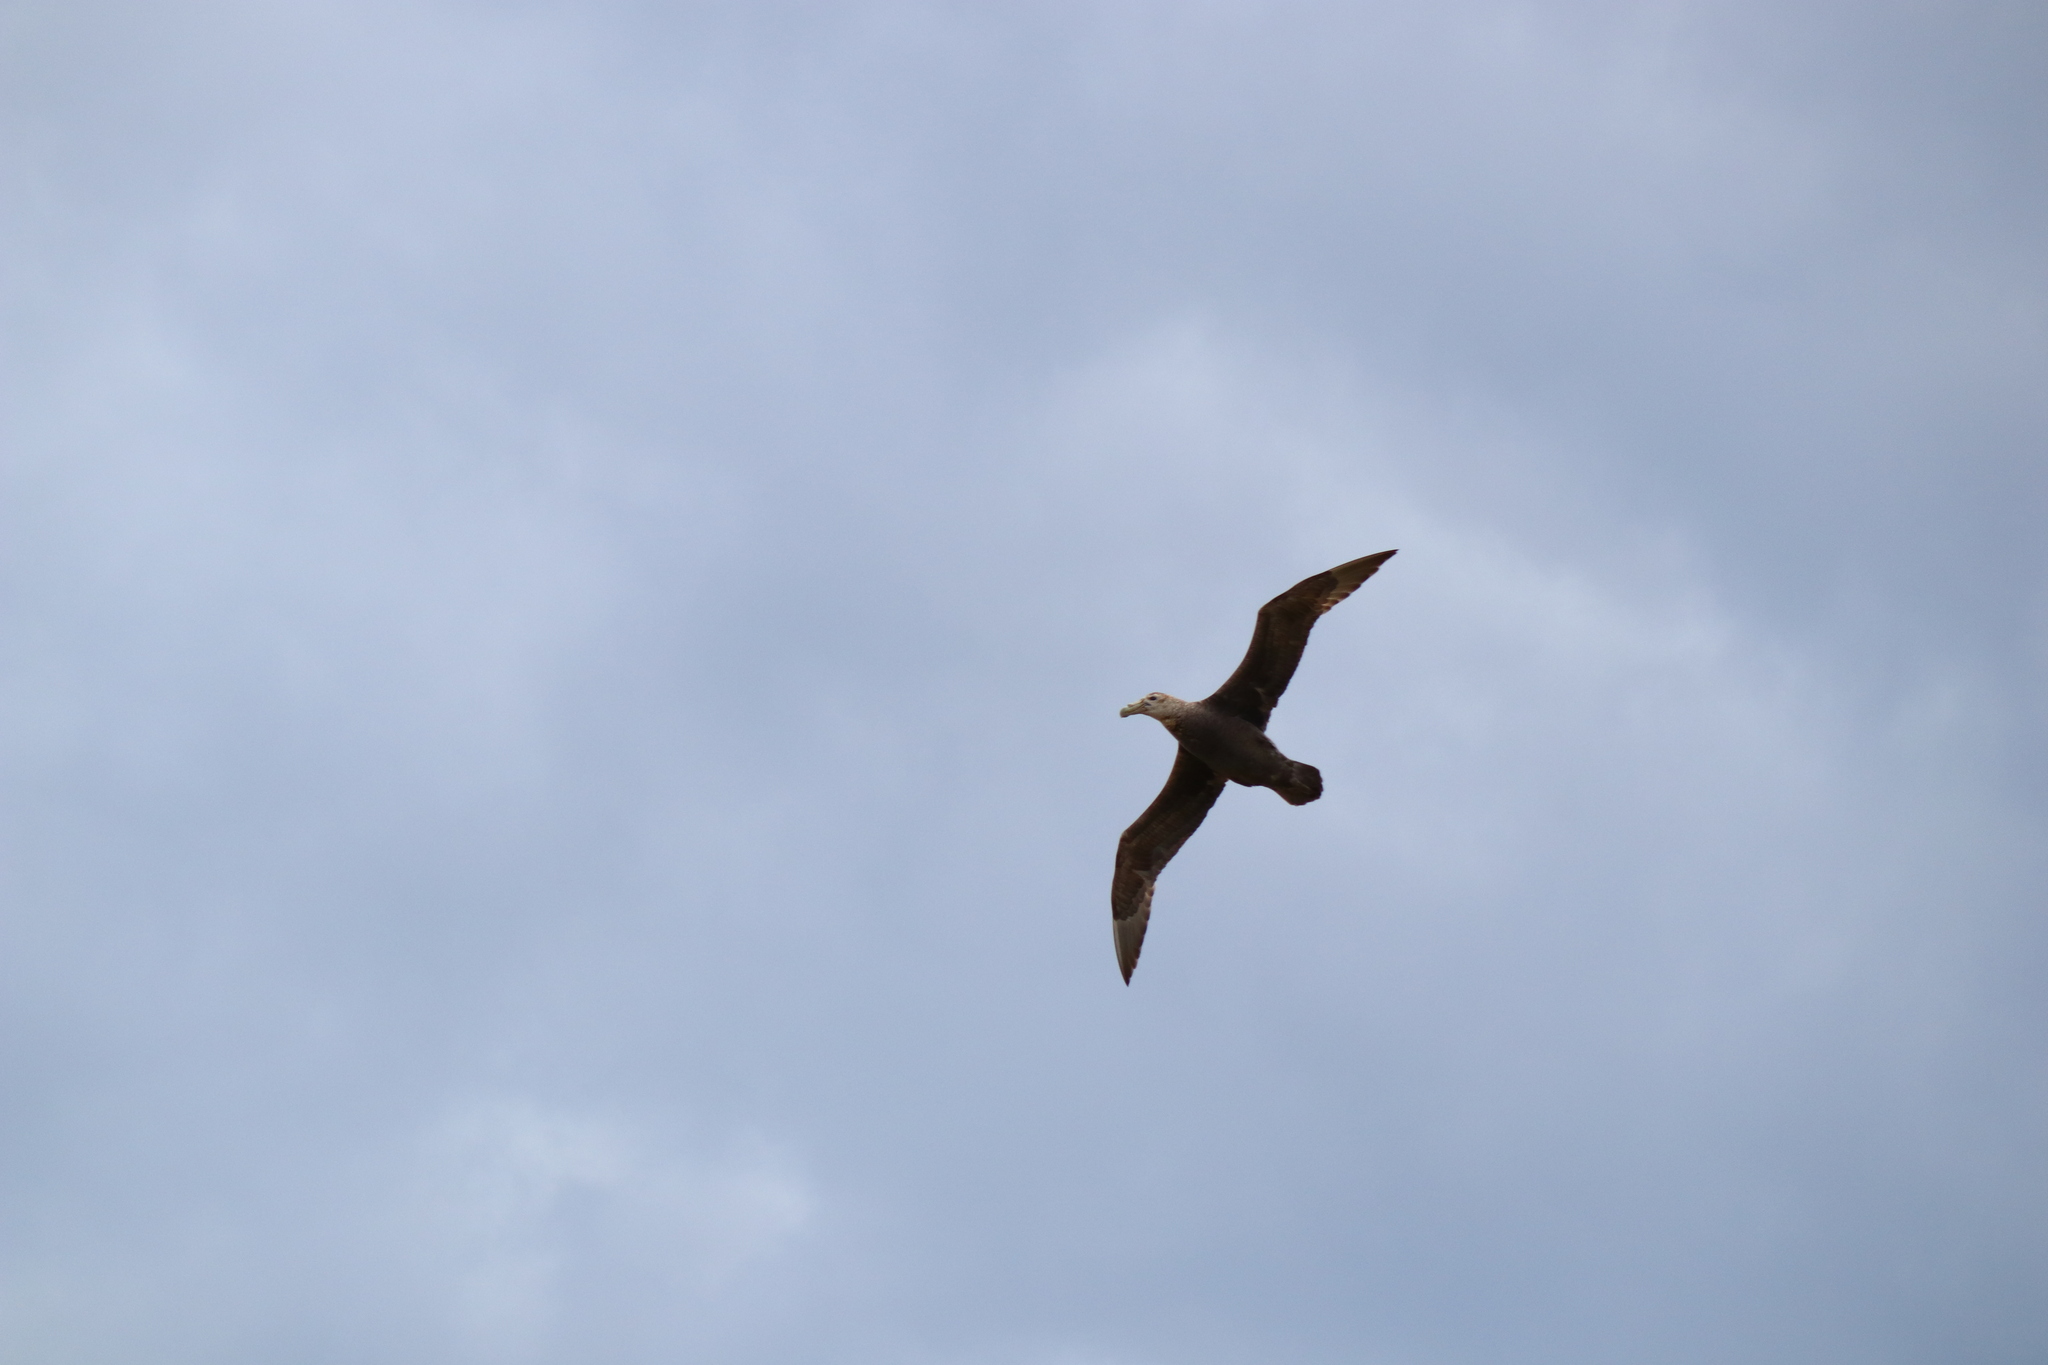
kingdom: Animalia
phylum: Chordata
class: Aves
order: Procellariiformes
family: Procellariidae
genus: Macronectes
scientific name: Macronectes giganteus
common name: Southern giant petrel
